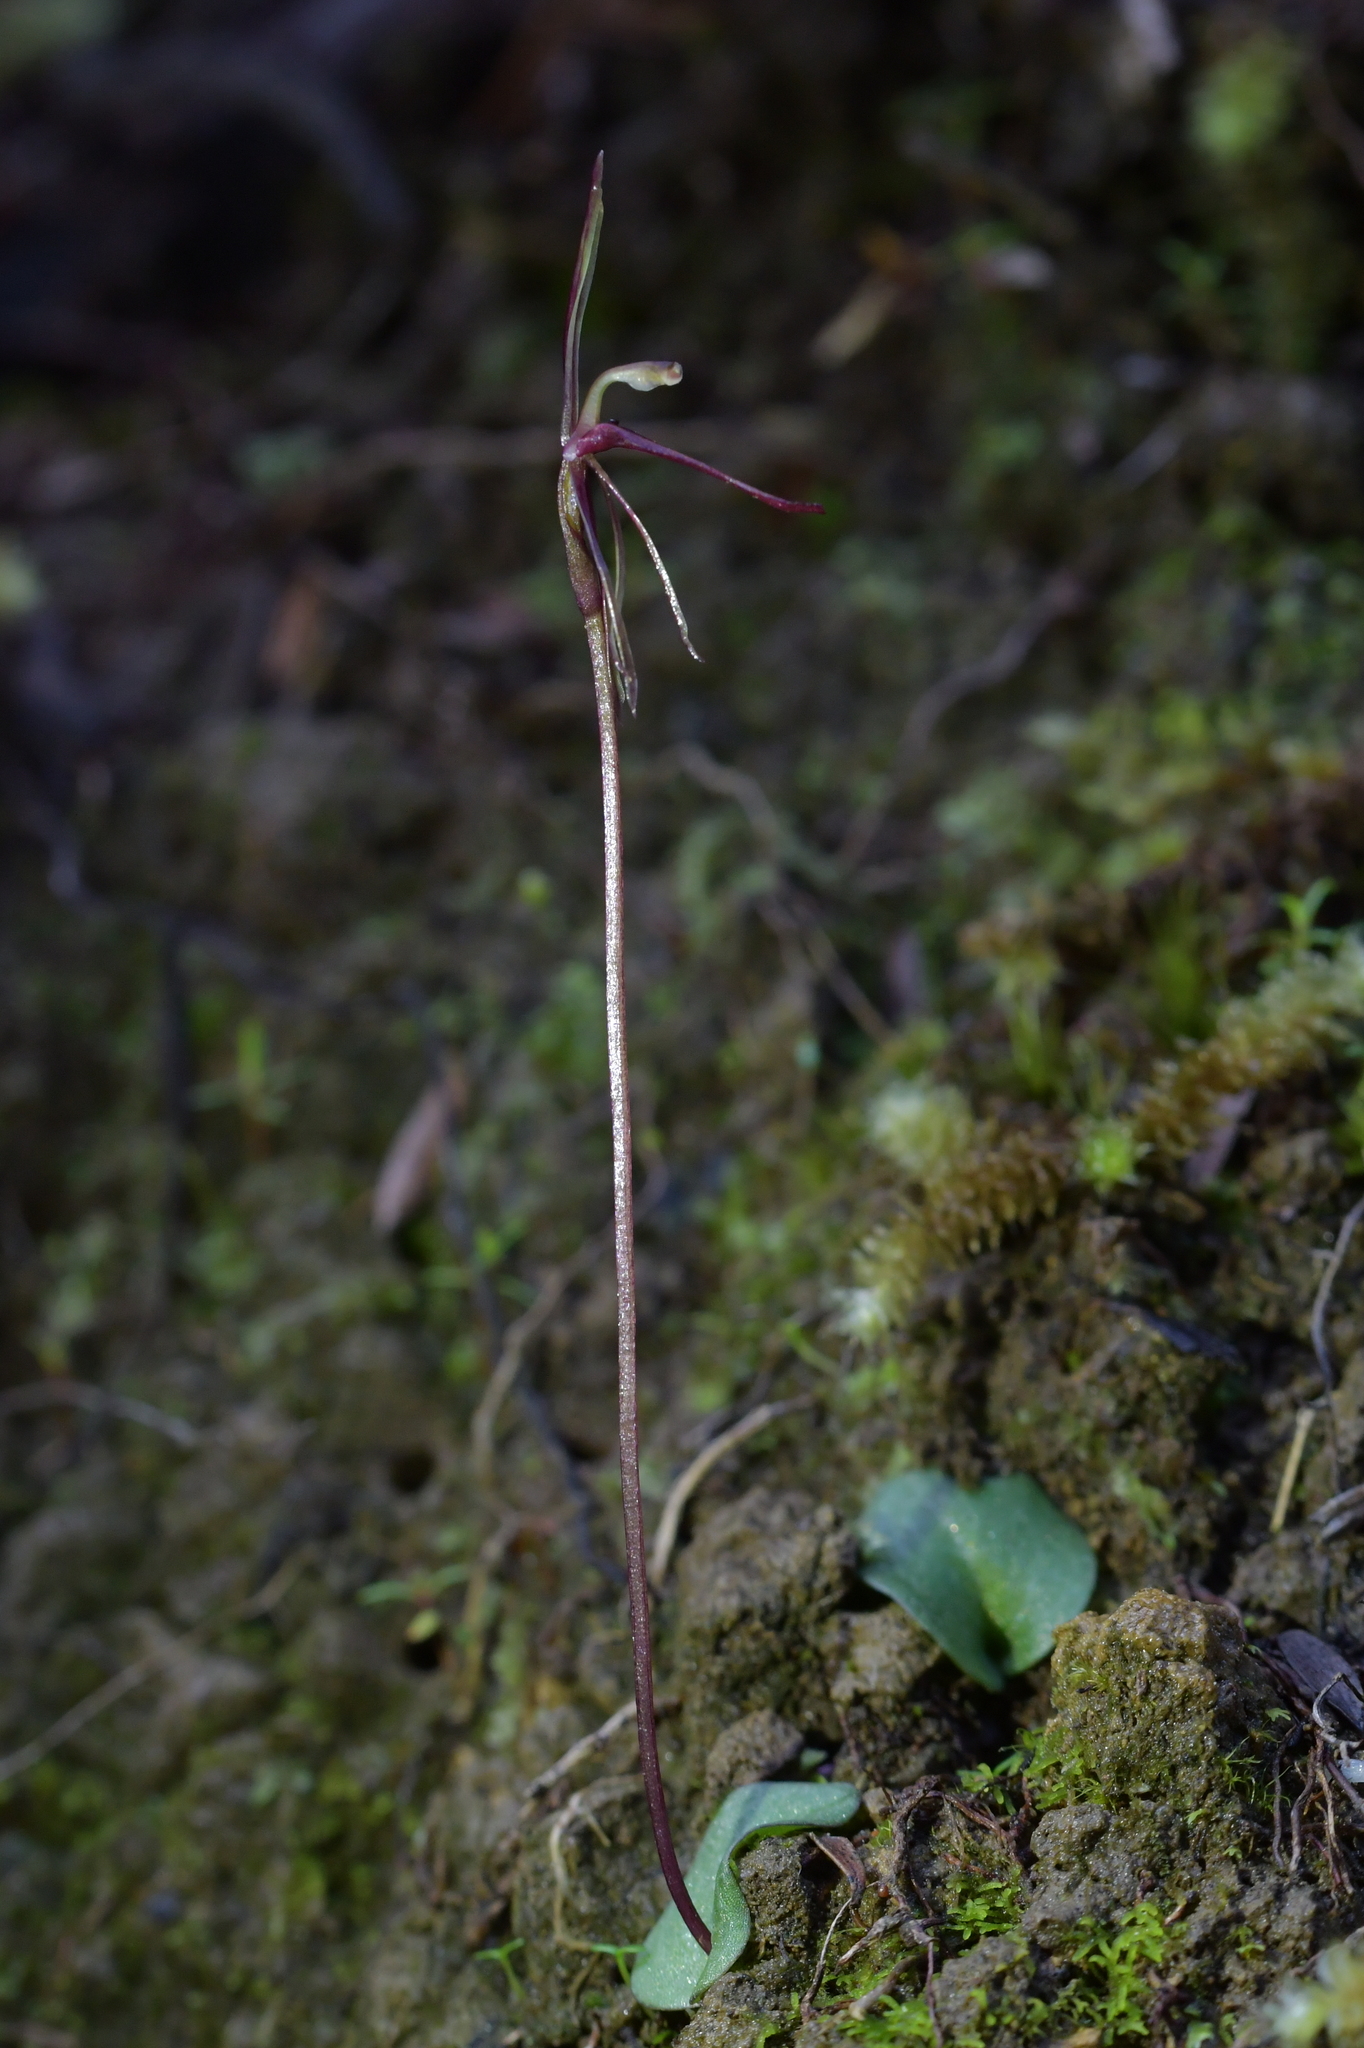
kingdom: Plantae
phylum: Tracheophyta
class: Liliopsida
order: Asparagales
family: Orchidaceae
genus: Cyrtostylis
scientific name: Cyrtostylis rotundifolia
